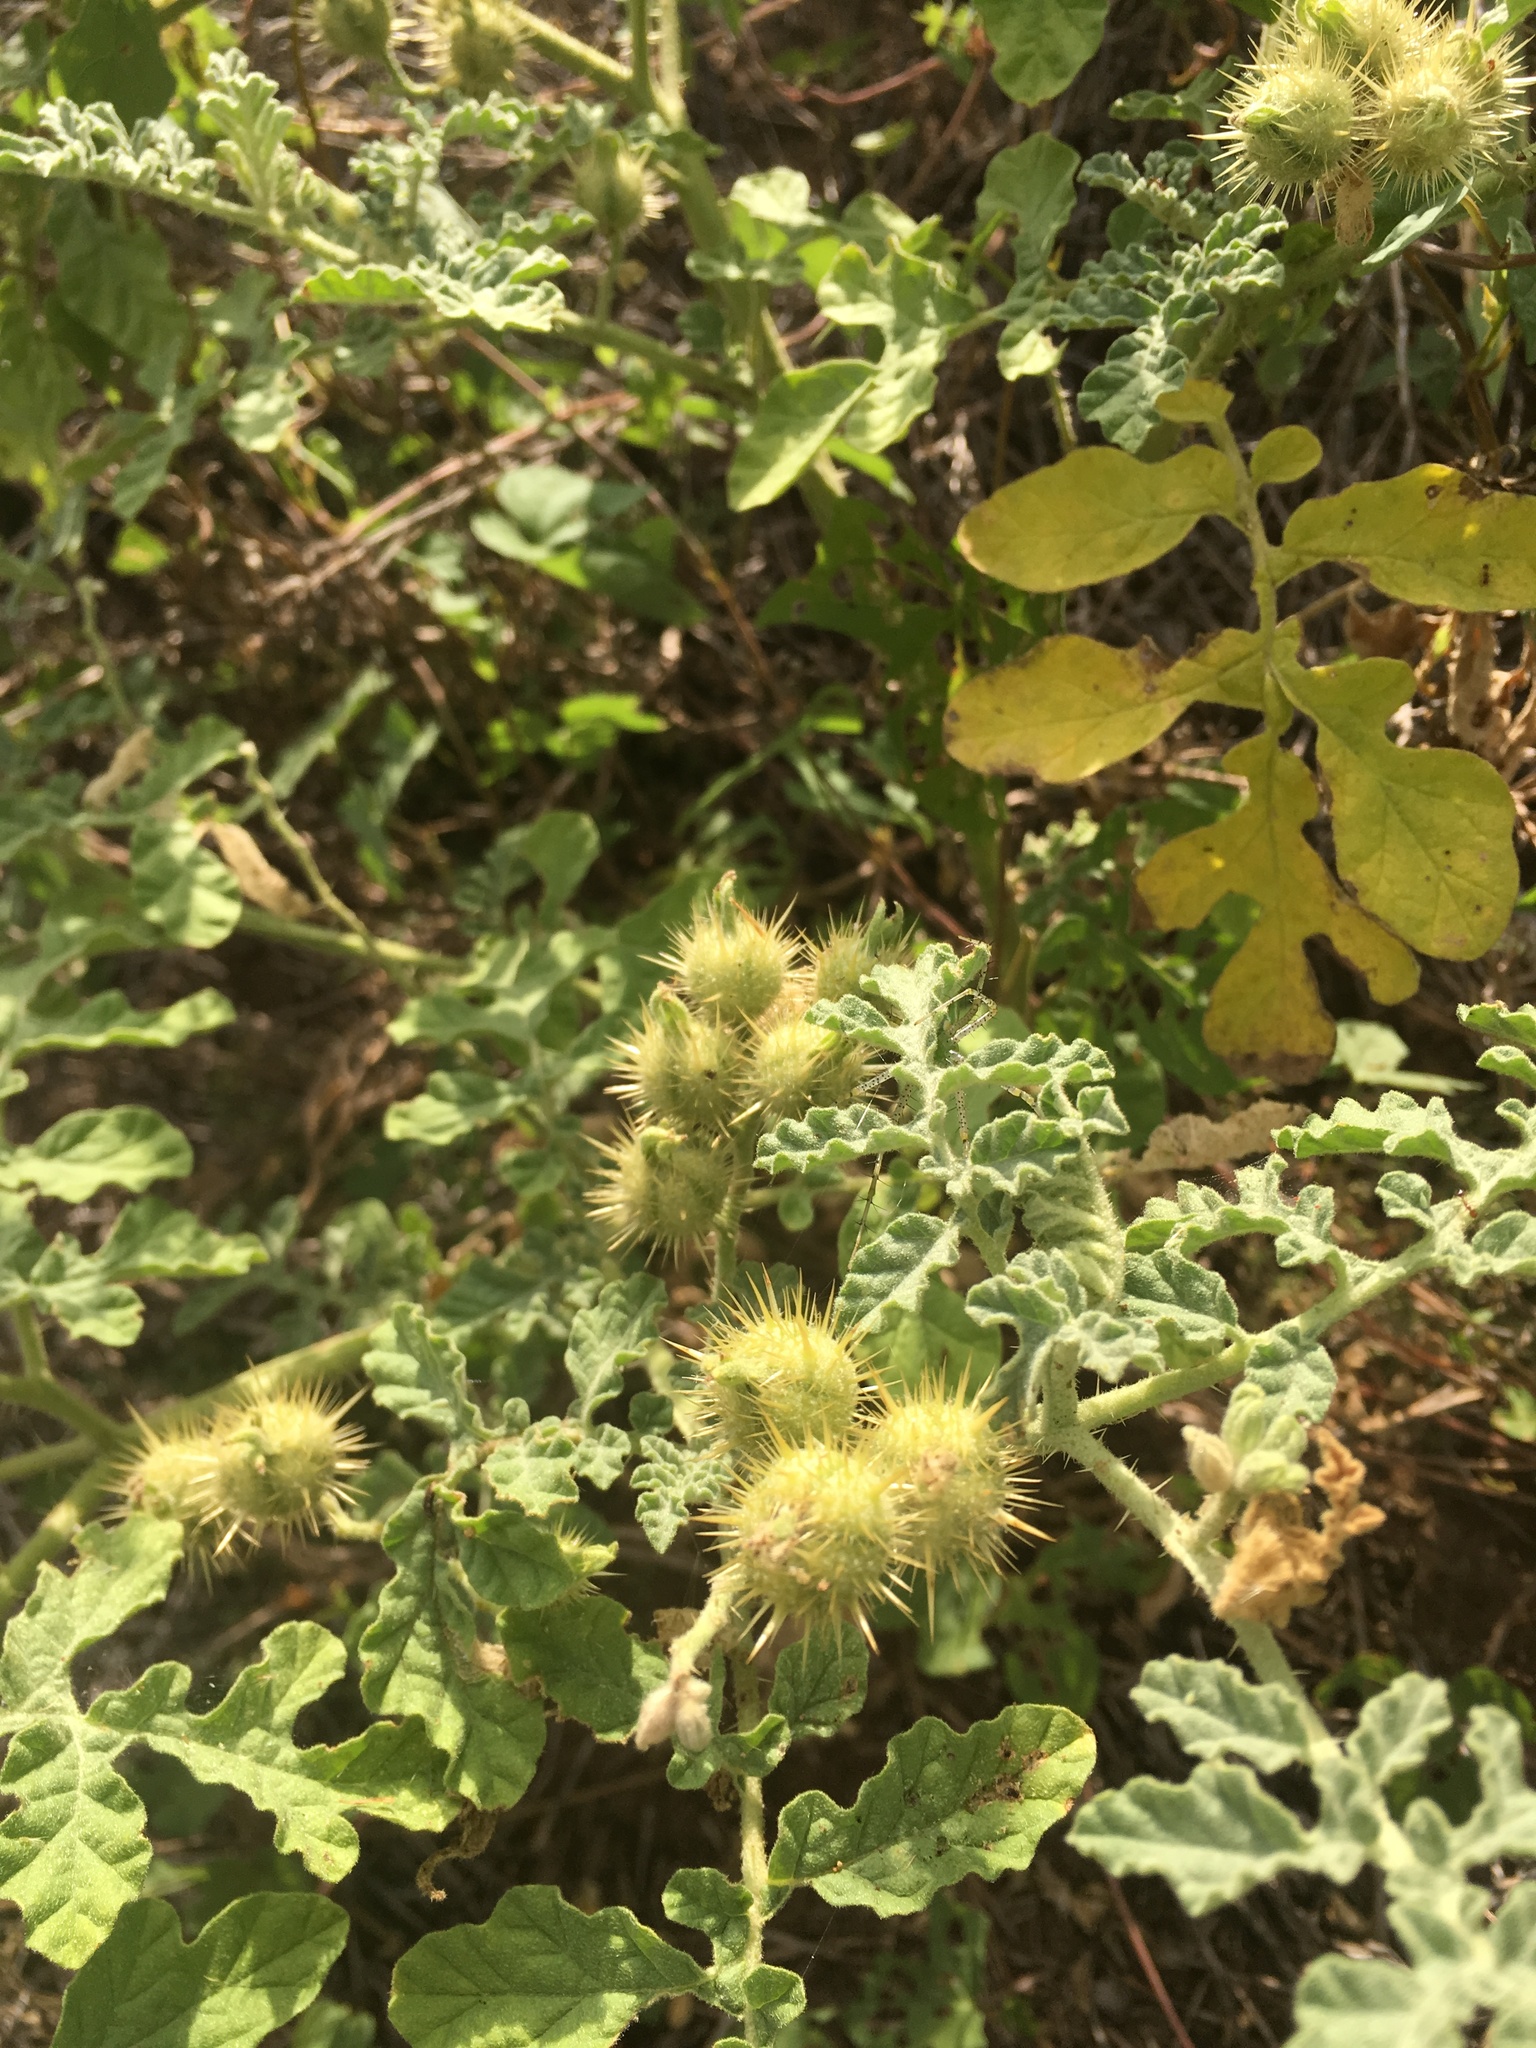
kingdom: Plantae
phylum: Tracheophyta
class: Magnoliopsida
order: Solanales
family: Solanaceae
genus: Solanum
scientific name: Solanum angustifolium
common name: Buffalobur nightshade
